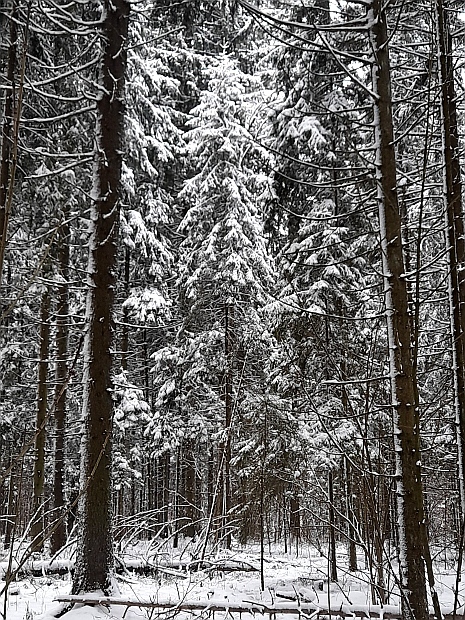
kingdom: Plantae
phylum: Tracheophyta
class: Pinopsida
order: Pinales
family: Pinaceae
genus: Picea
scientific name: Picea abies
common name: Norway spruce
